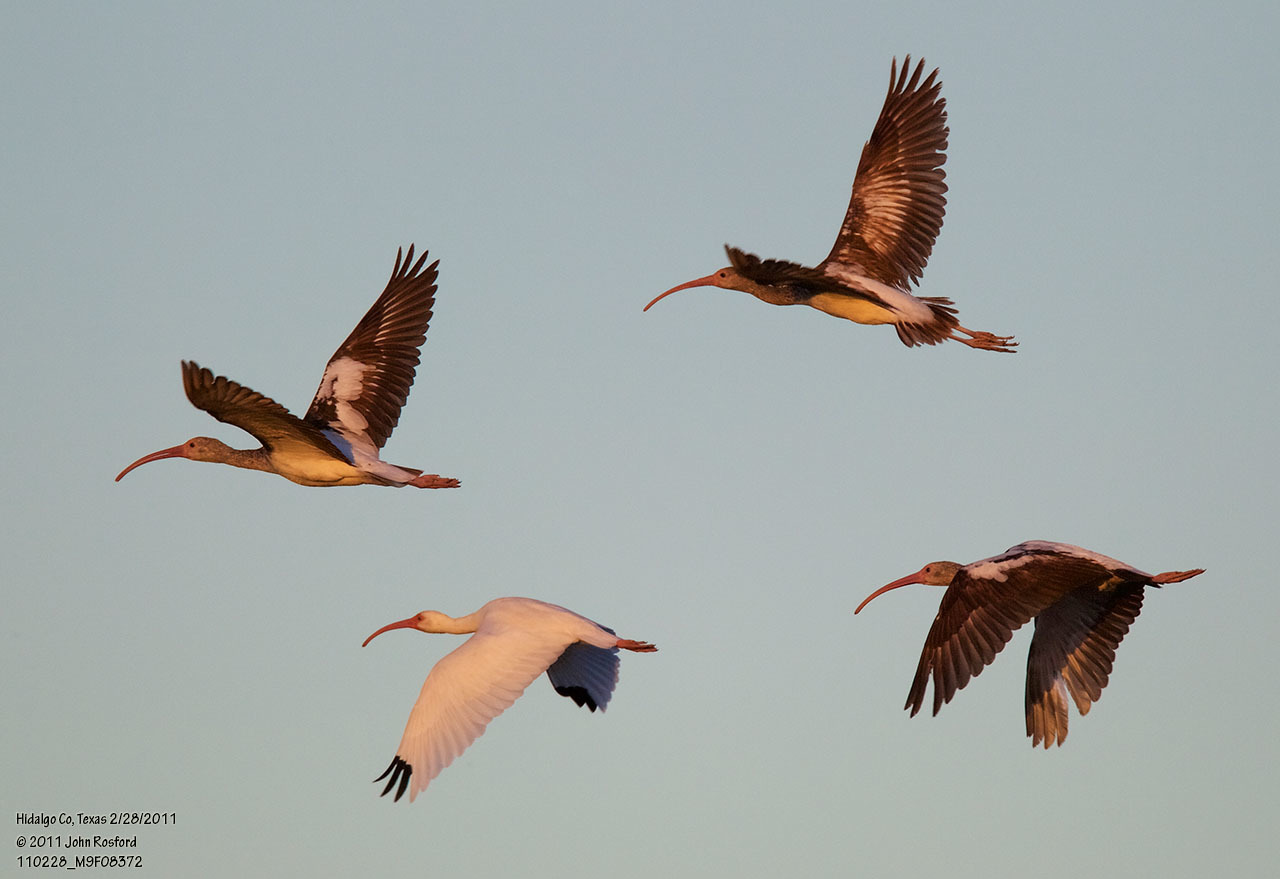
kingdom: Animalia
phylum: Chordata
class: Aves
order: Pelecaniformes
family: Threskiornithidae
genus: Eudocimus
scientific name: Eudocimus albus
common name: White ibis
